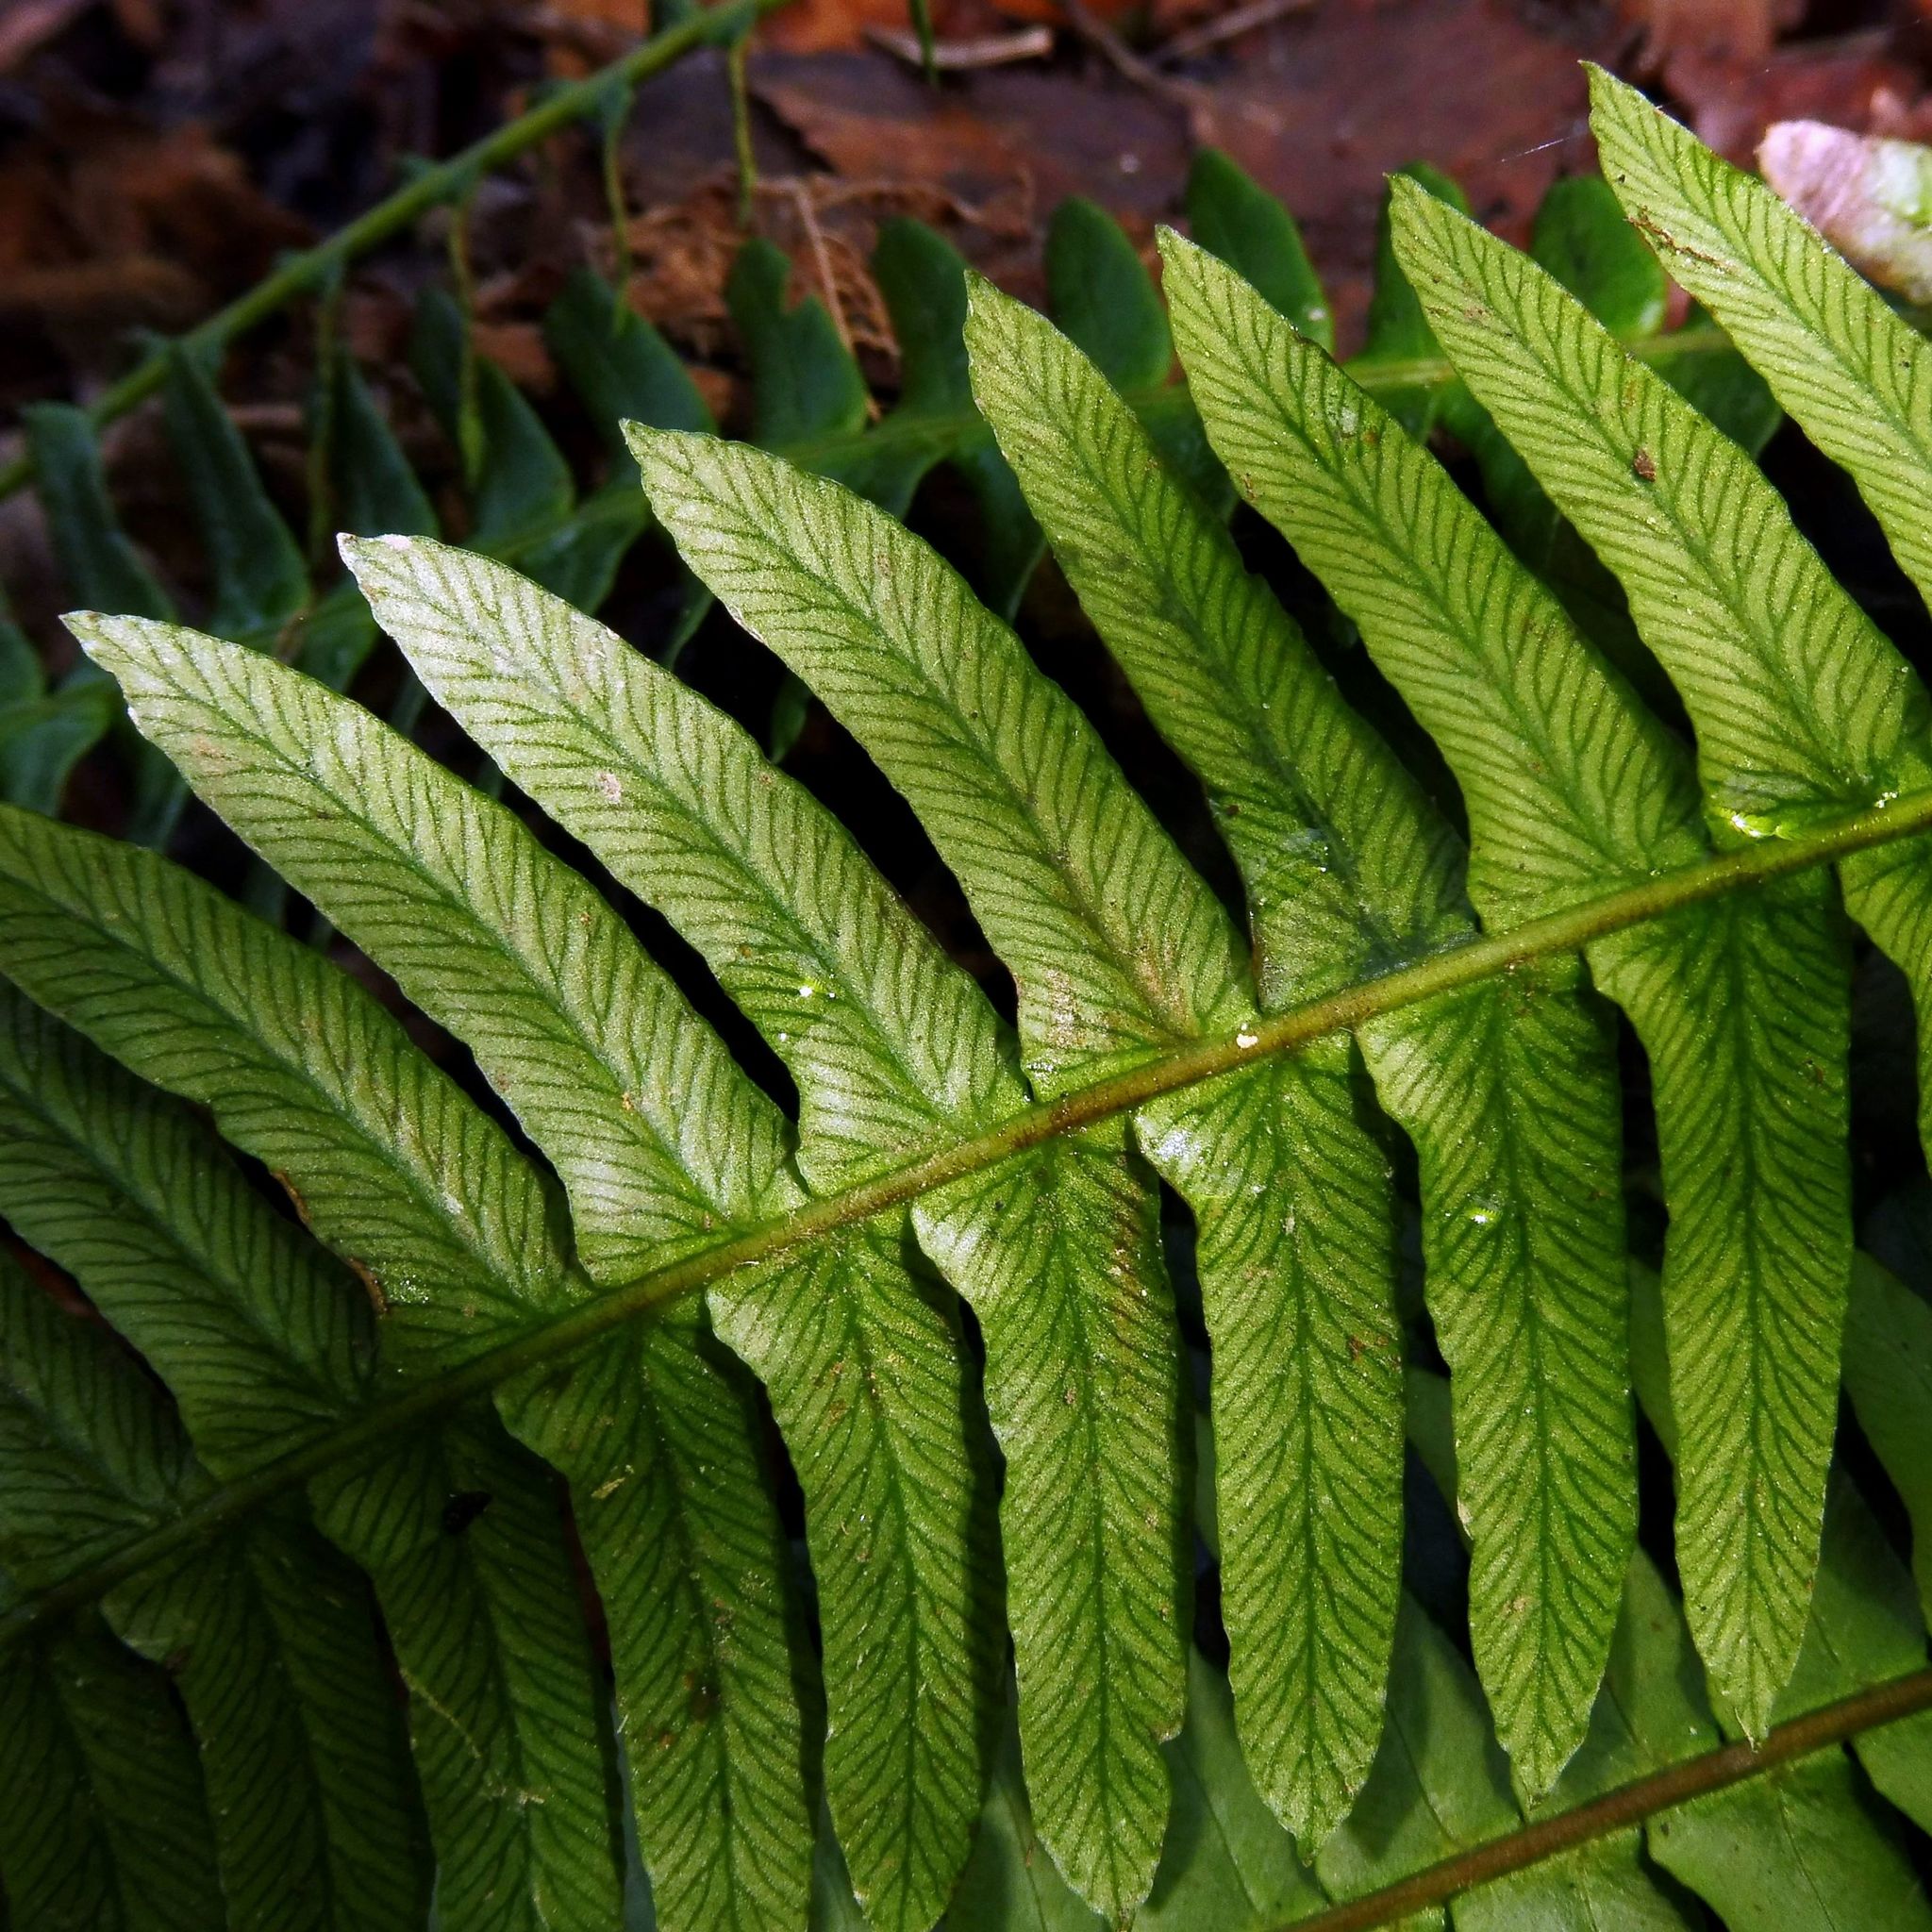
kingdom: Plantae
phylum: Tracheophyta
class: Polypodiopsida
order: Polypodiales
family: Blechnaceae
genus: Struthiopteris
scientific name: Struthiopteris spicant
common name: Deer fern
